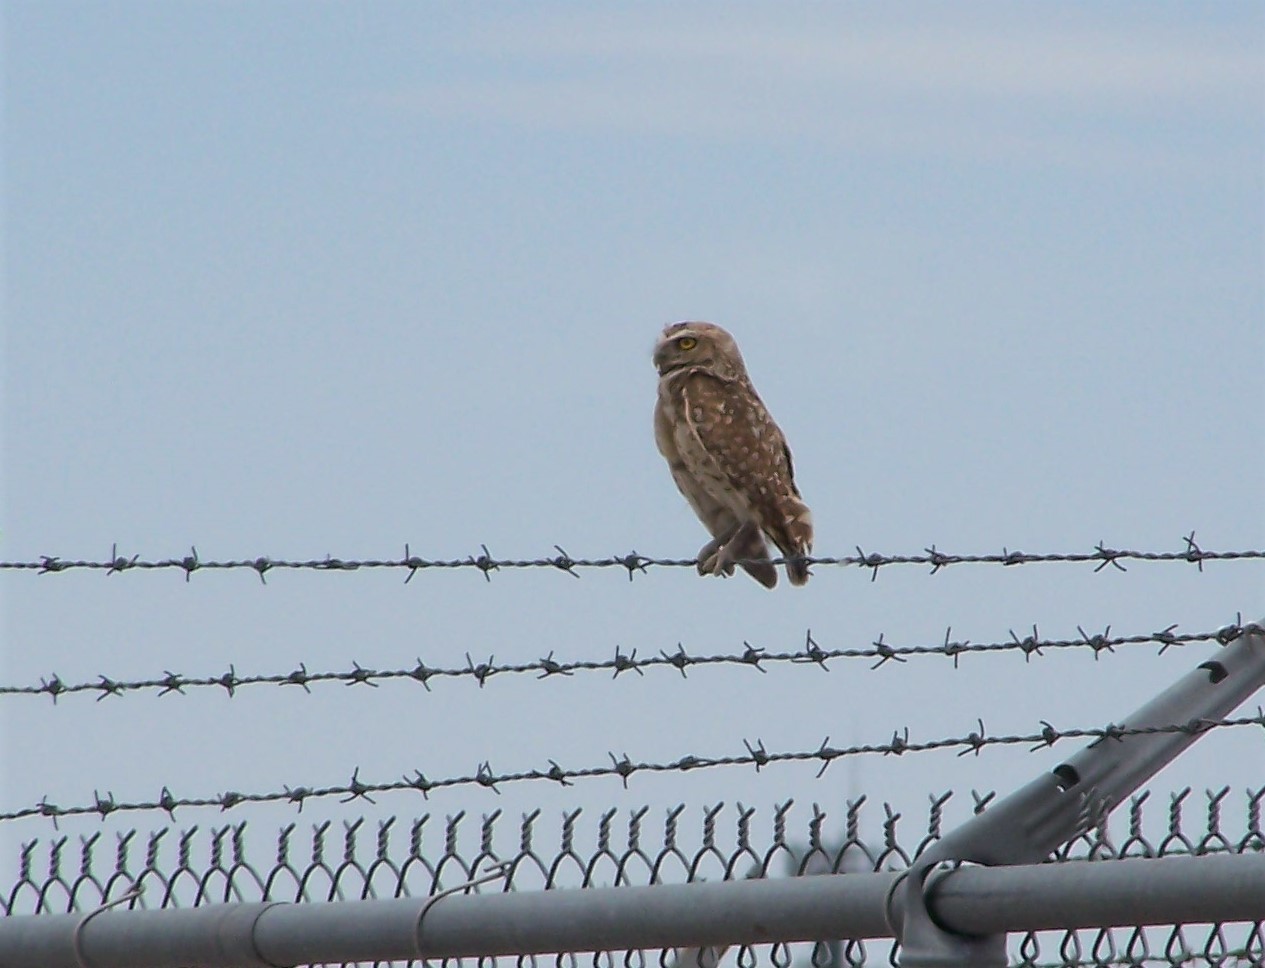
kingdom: Animalia
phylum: Chordata
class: Aves
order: Strigiformes
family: Strigidae
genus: Athene
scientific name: Athene cunicularia
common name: Burrowing owl
